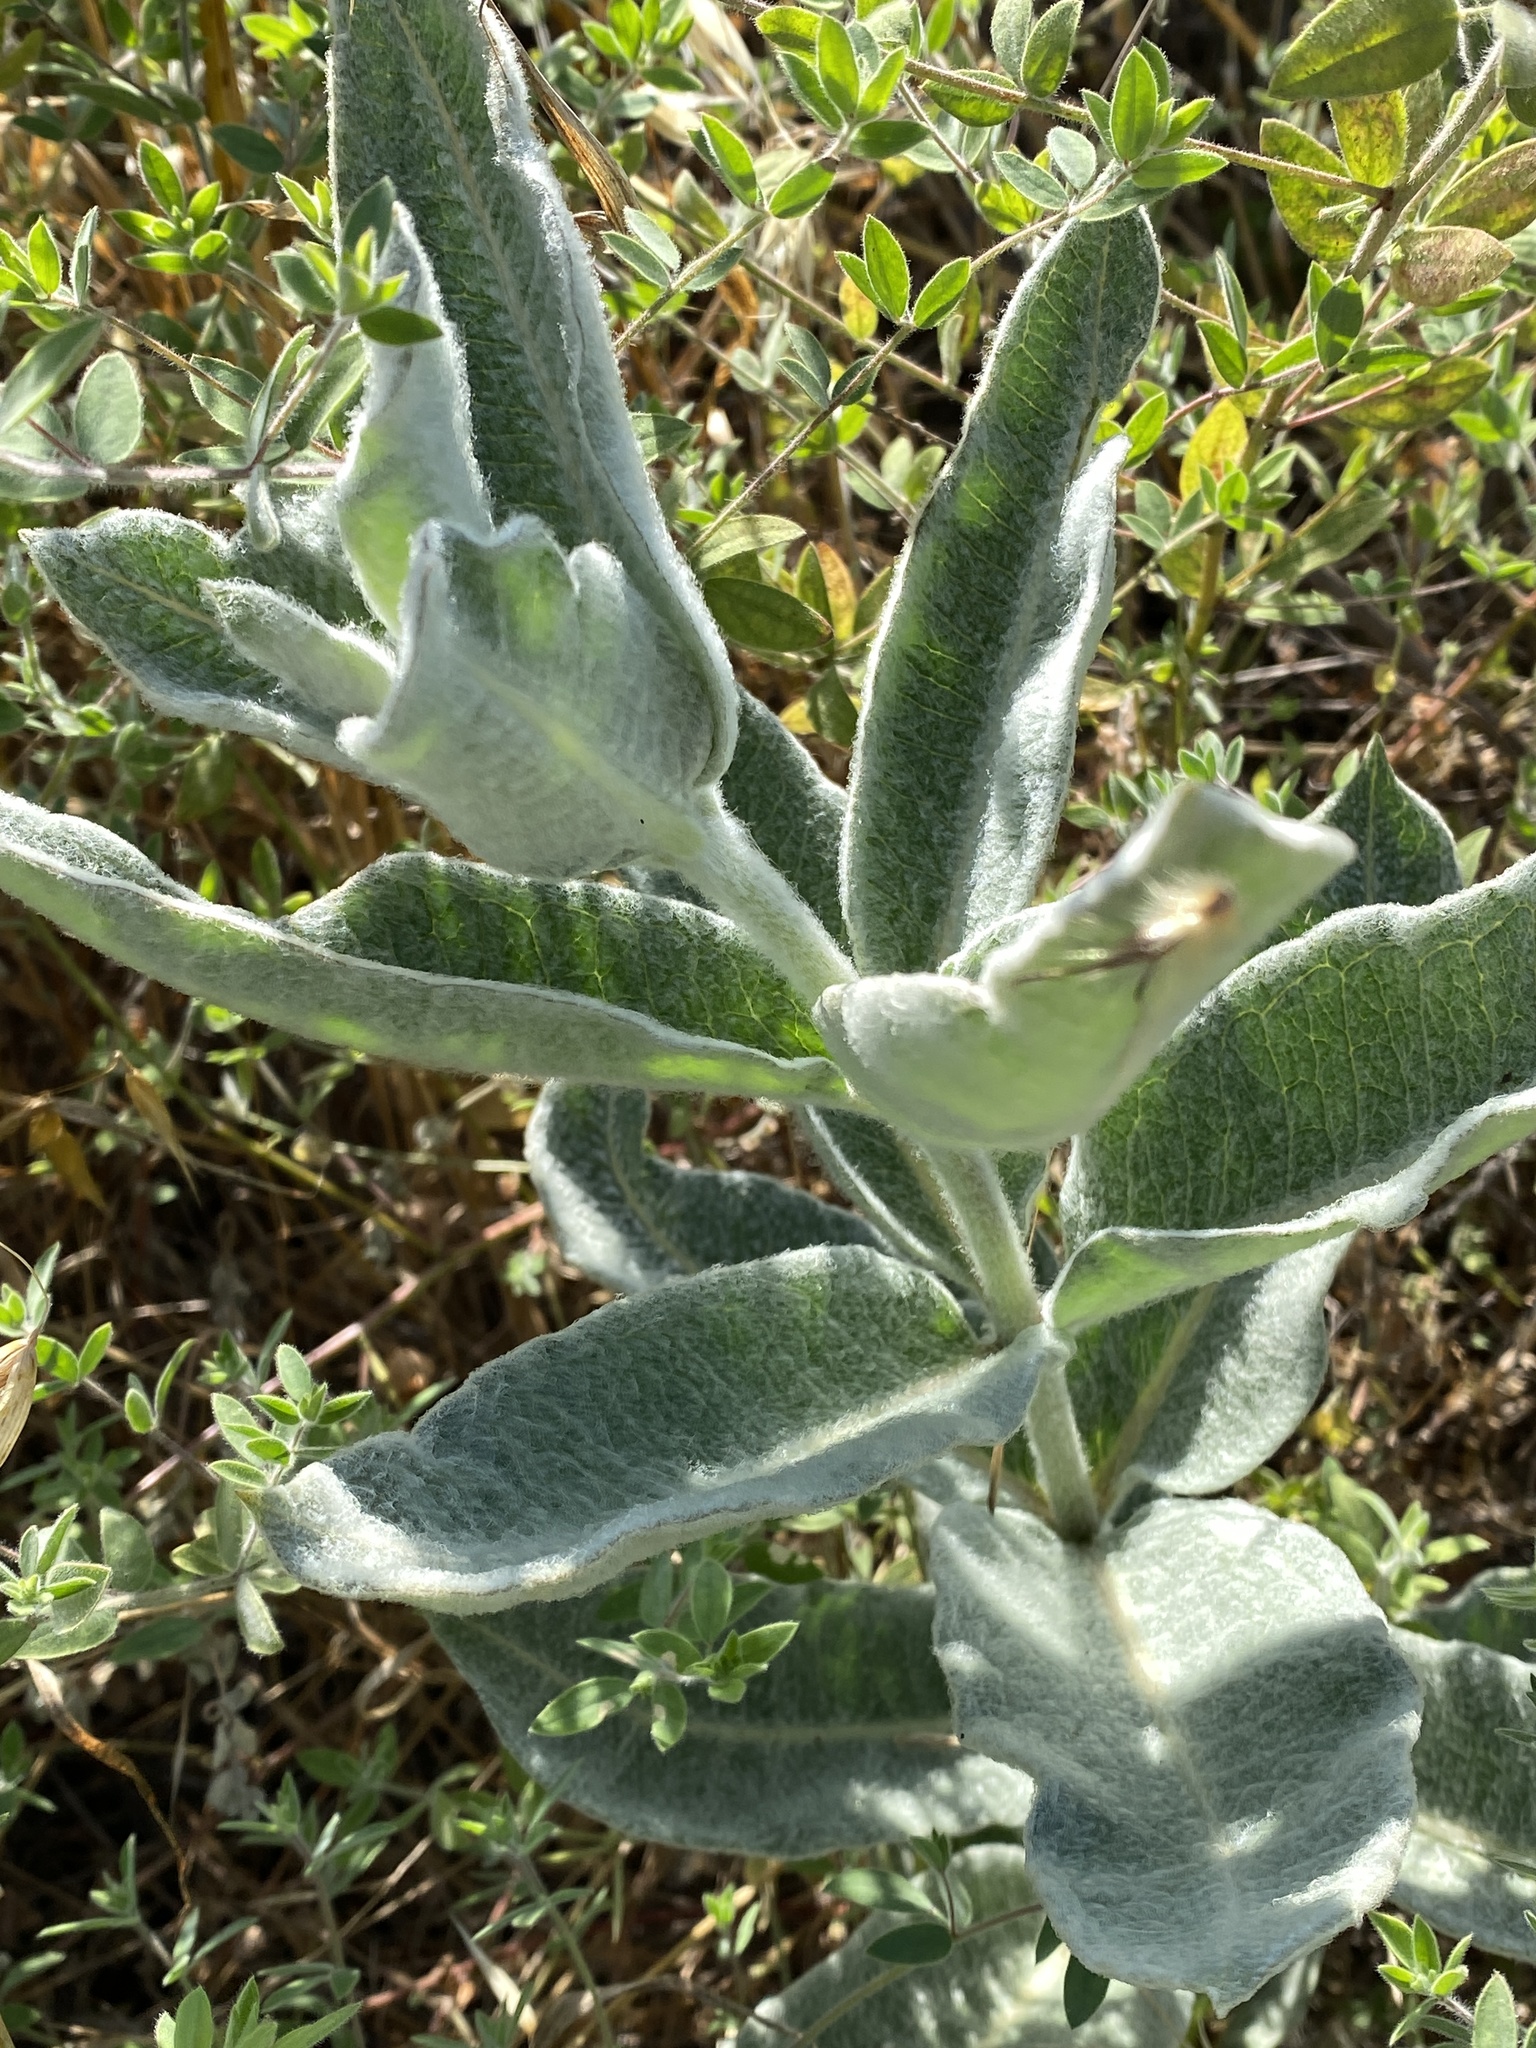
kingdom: Plantae
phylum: Tracheophyta
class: Magnoliopsida
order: Gentianales
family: Apocynaceae
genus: Asclepias
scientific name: Asclepias eriocarpa
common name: Indian milkweed
